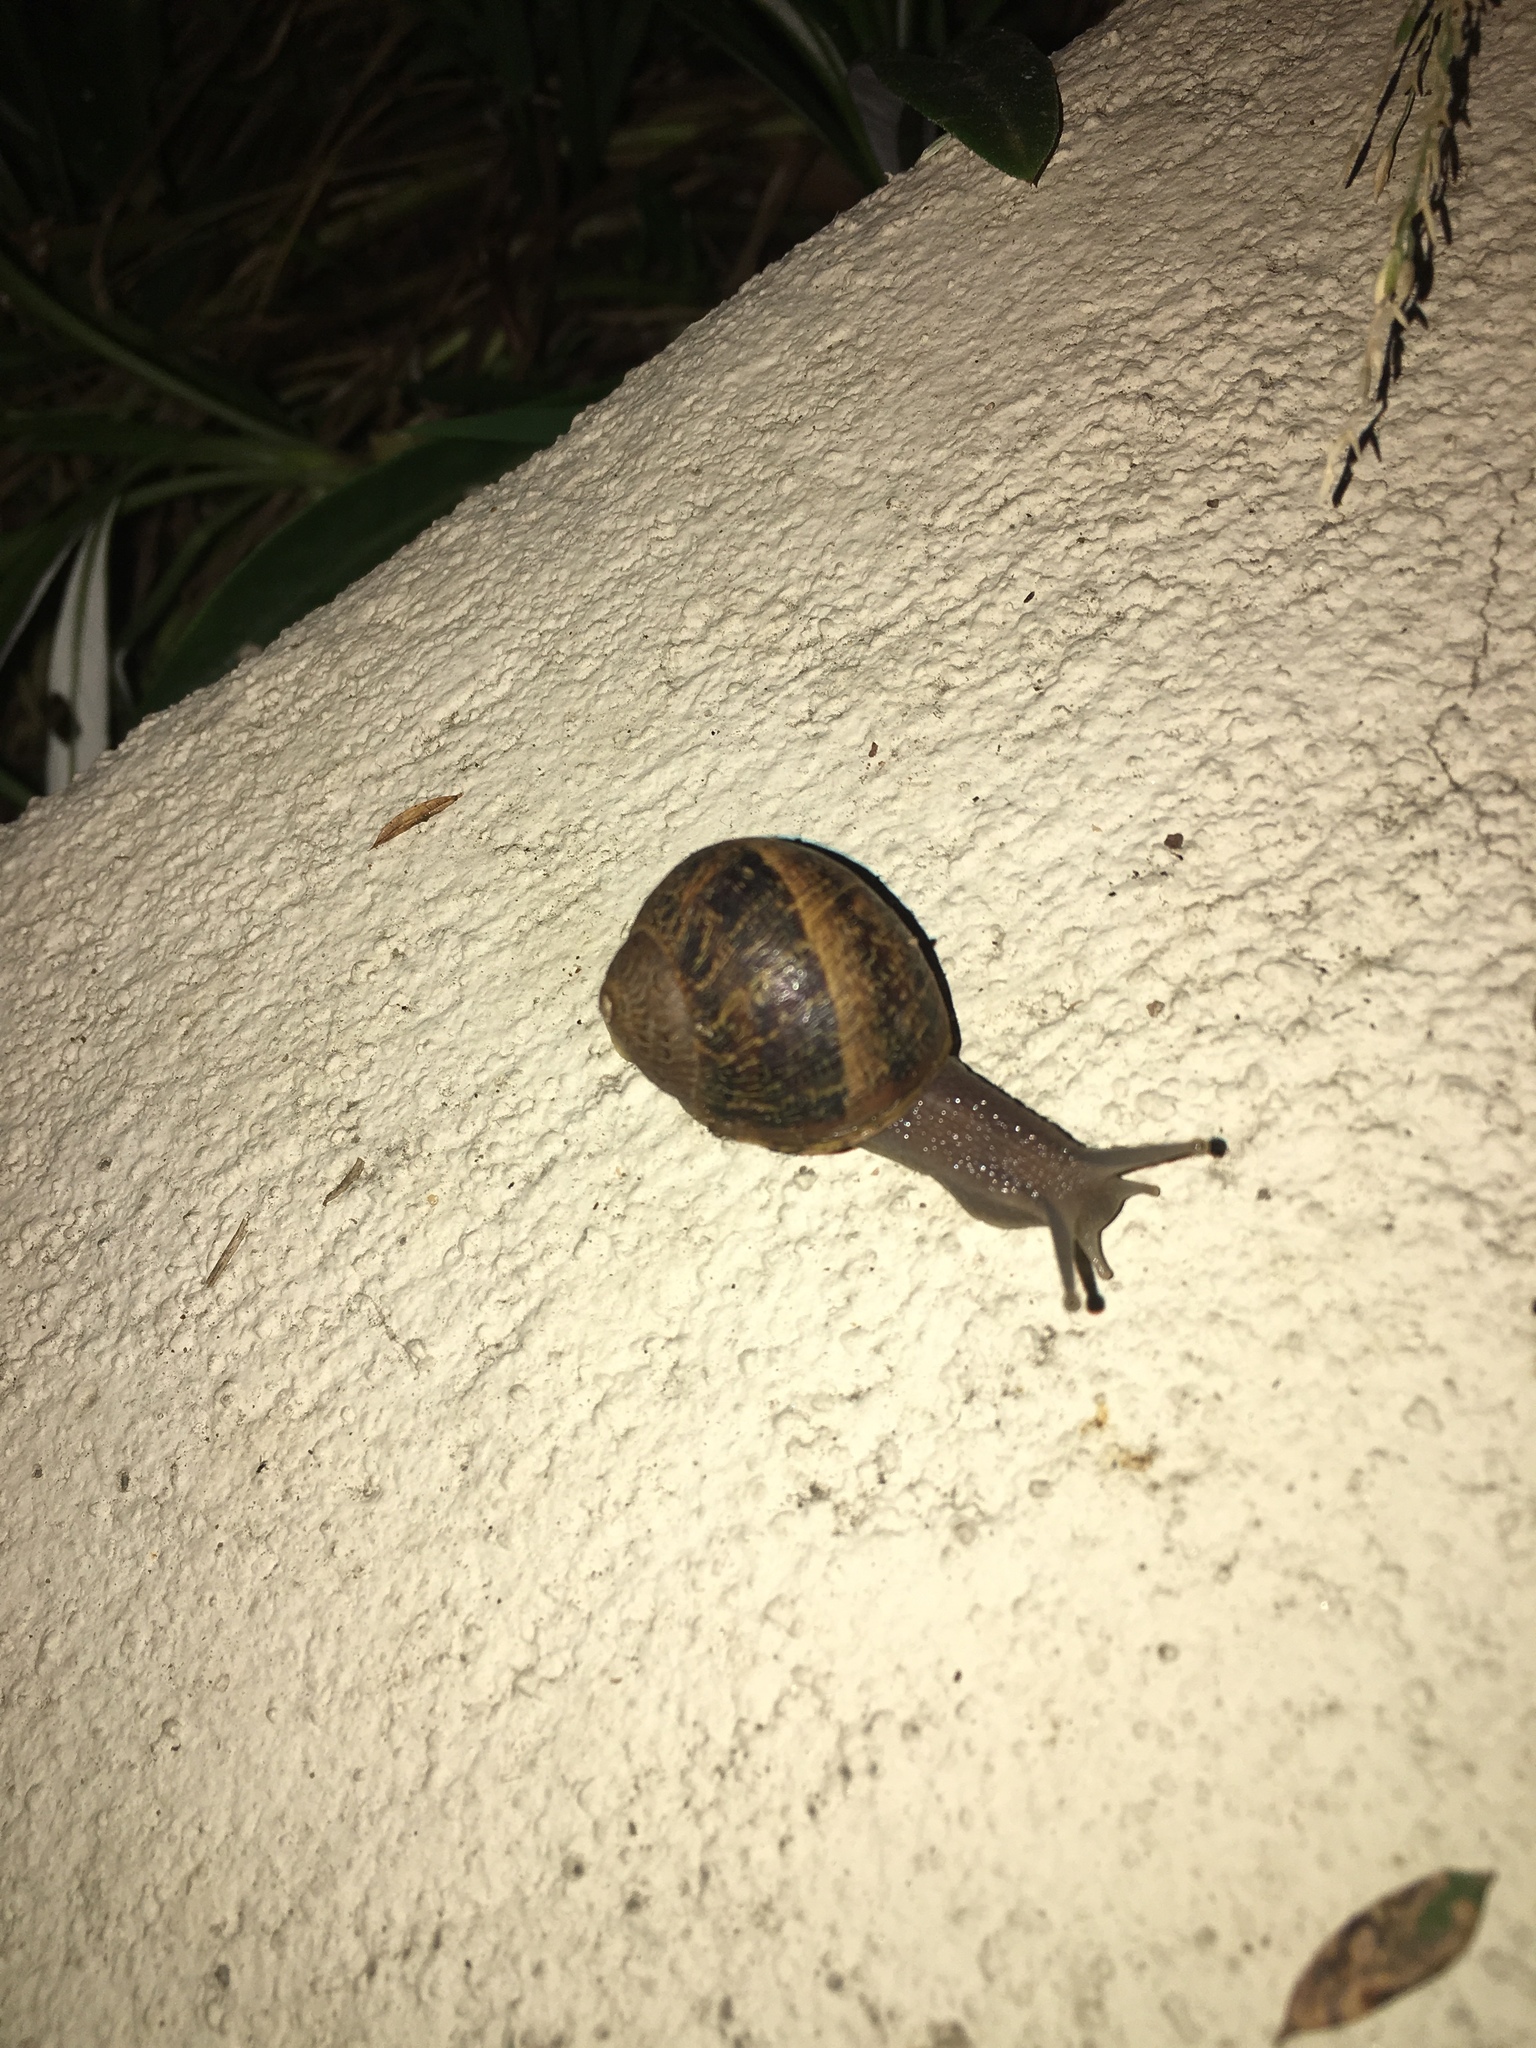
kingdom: Animalia
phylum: Mollusca
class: Gastropoda
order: Stylommatophora
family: Helicidae
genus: Cornu
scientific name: Cornu aspersum
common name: Brown garden snail
